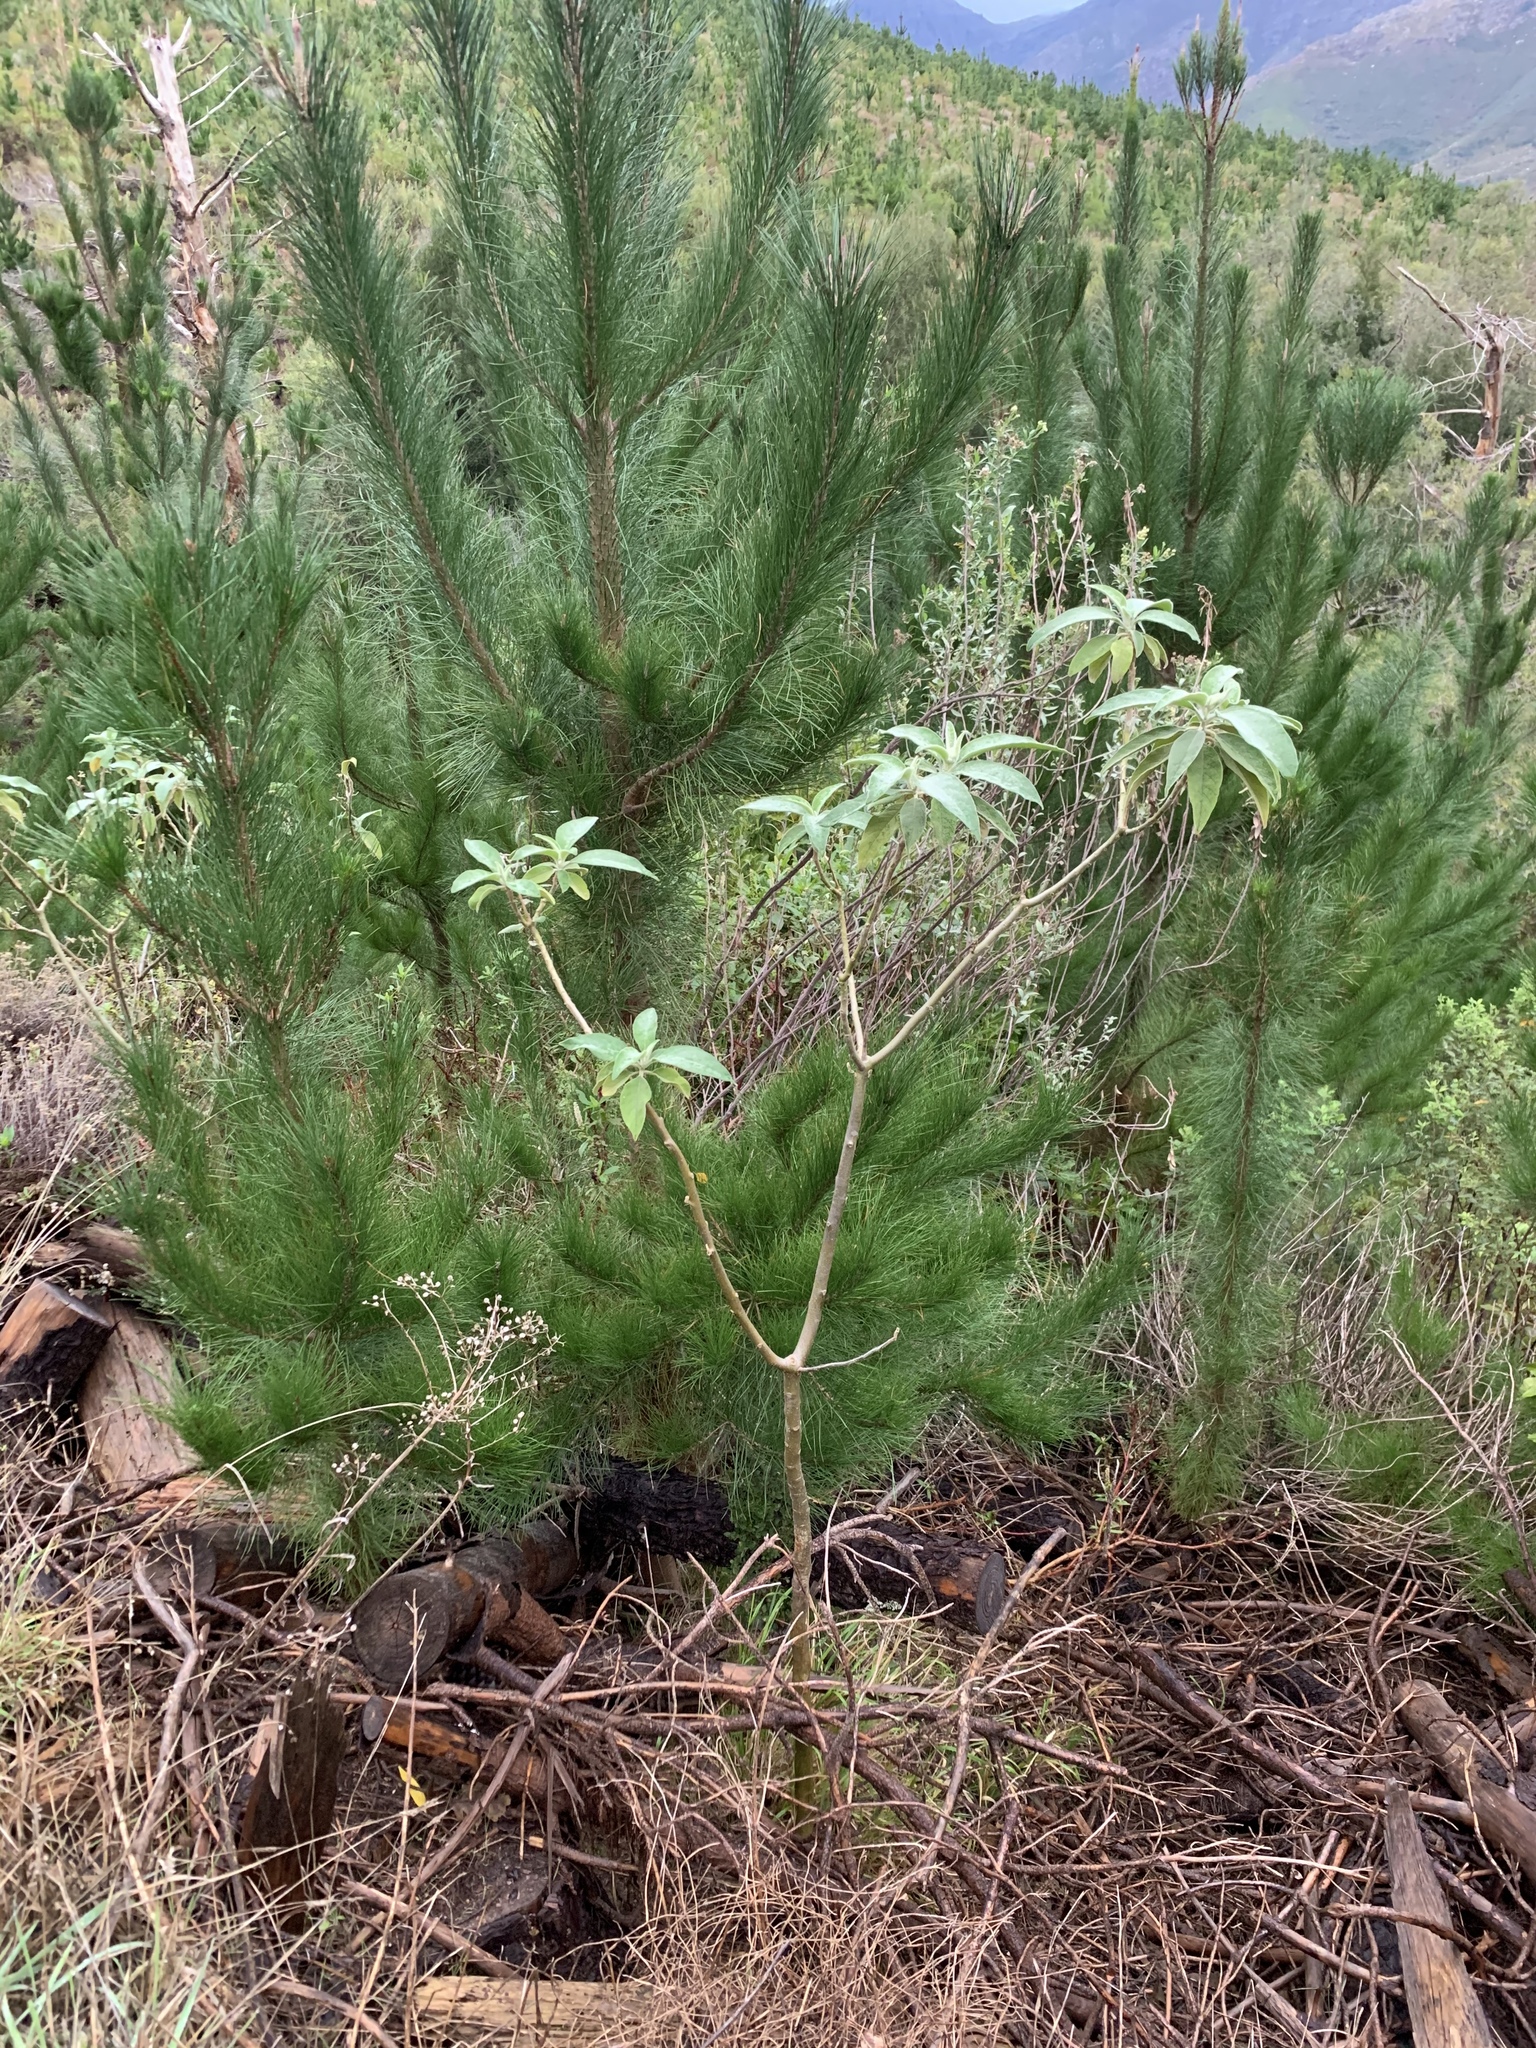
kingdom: Plantae
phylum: Tracheophyta
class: Magnoliopsida
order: Solanales
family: Solanaceae
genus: Solanum
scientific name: Solanum mauritianum
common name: Earleaf nightshade
